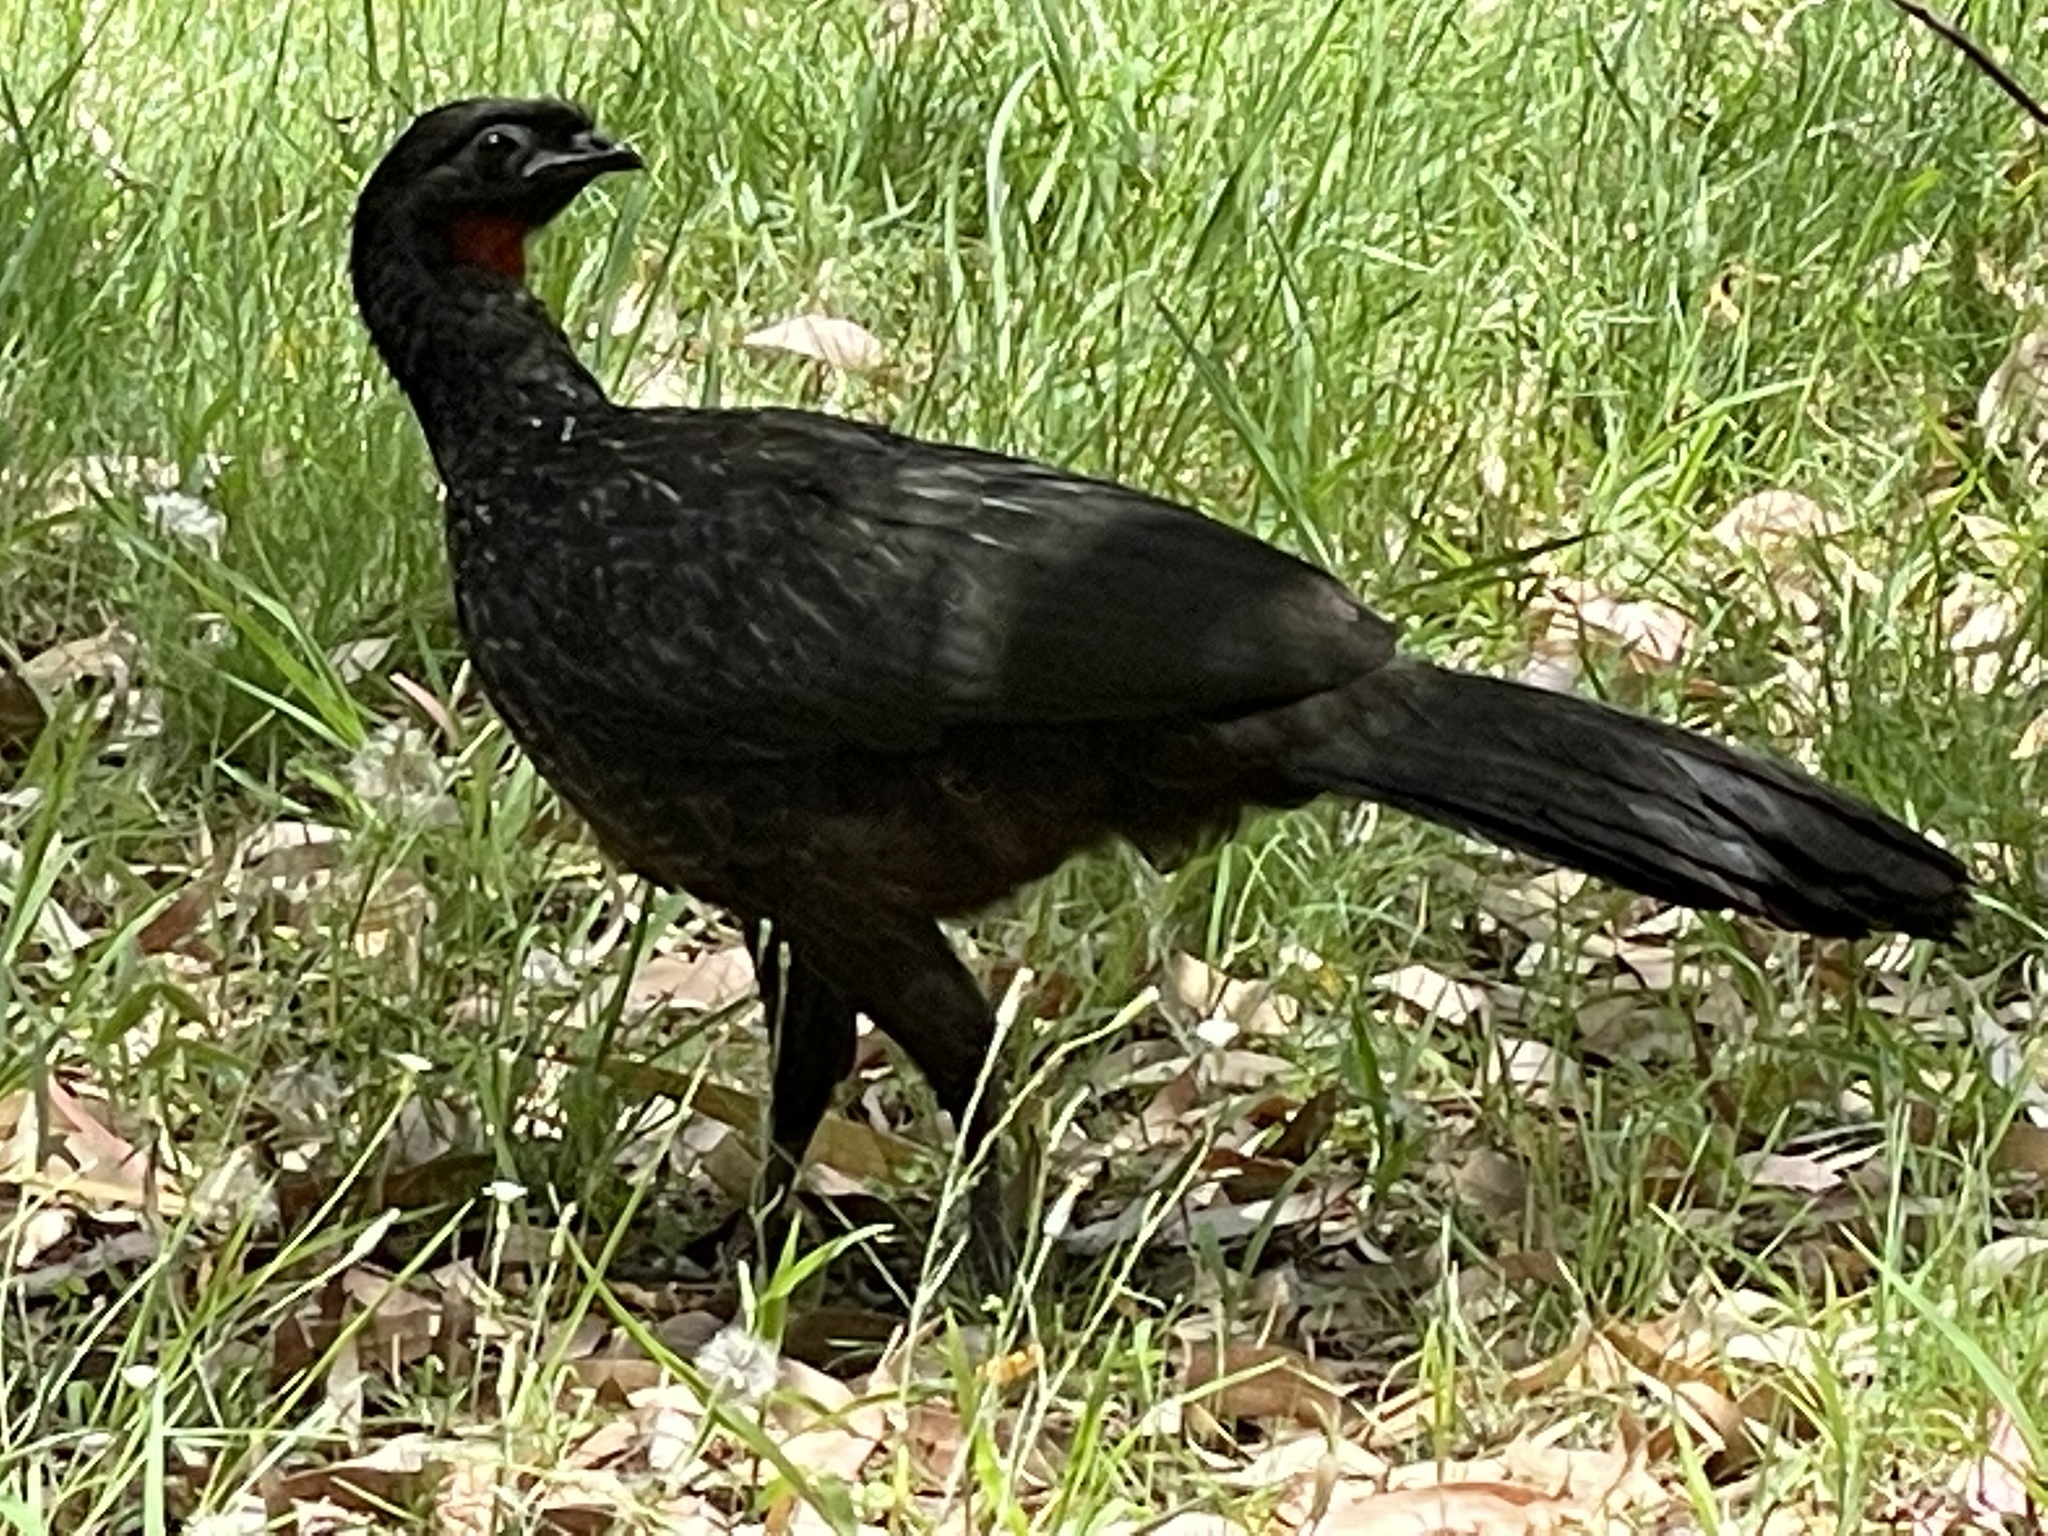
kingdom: Animalia
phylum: Chordata
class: Aves
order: Galliformes
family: Cracidae
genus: Penelope
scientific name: Penelope obscura
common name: Dusky-legged guan
